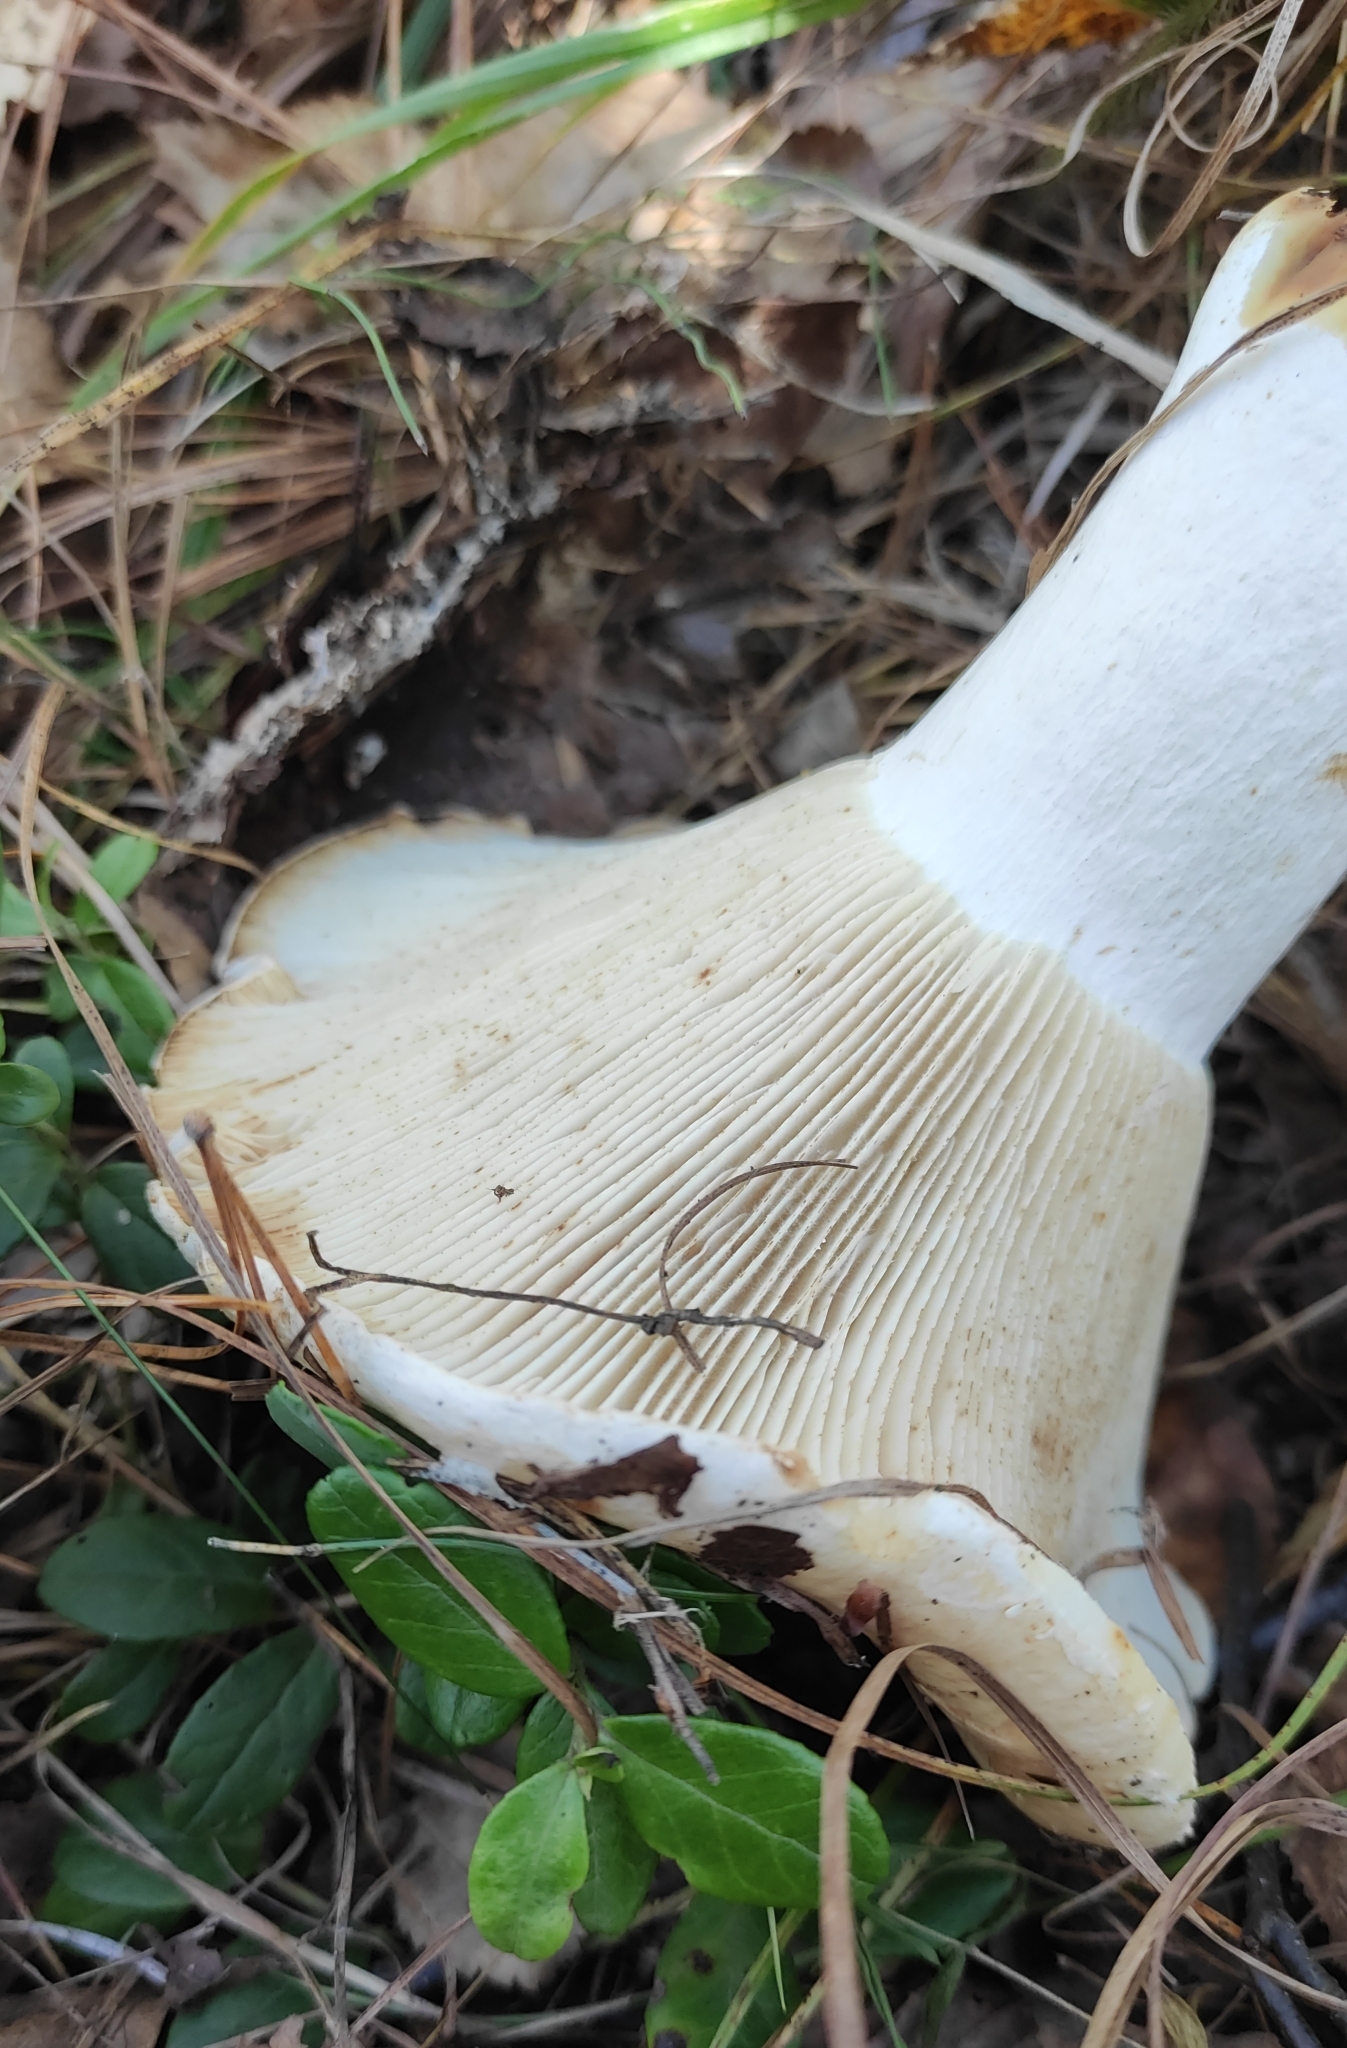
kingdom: Fungi
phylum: Basidiomycota
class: Agaricomycetes
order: Russulales
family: Russulaceae
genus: Russula
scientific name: Russula delica
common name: Milk white brittlegill
